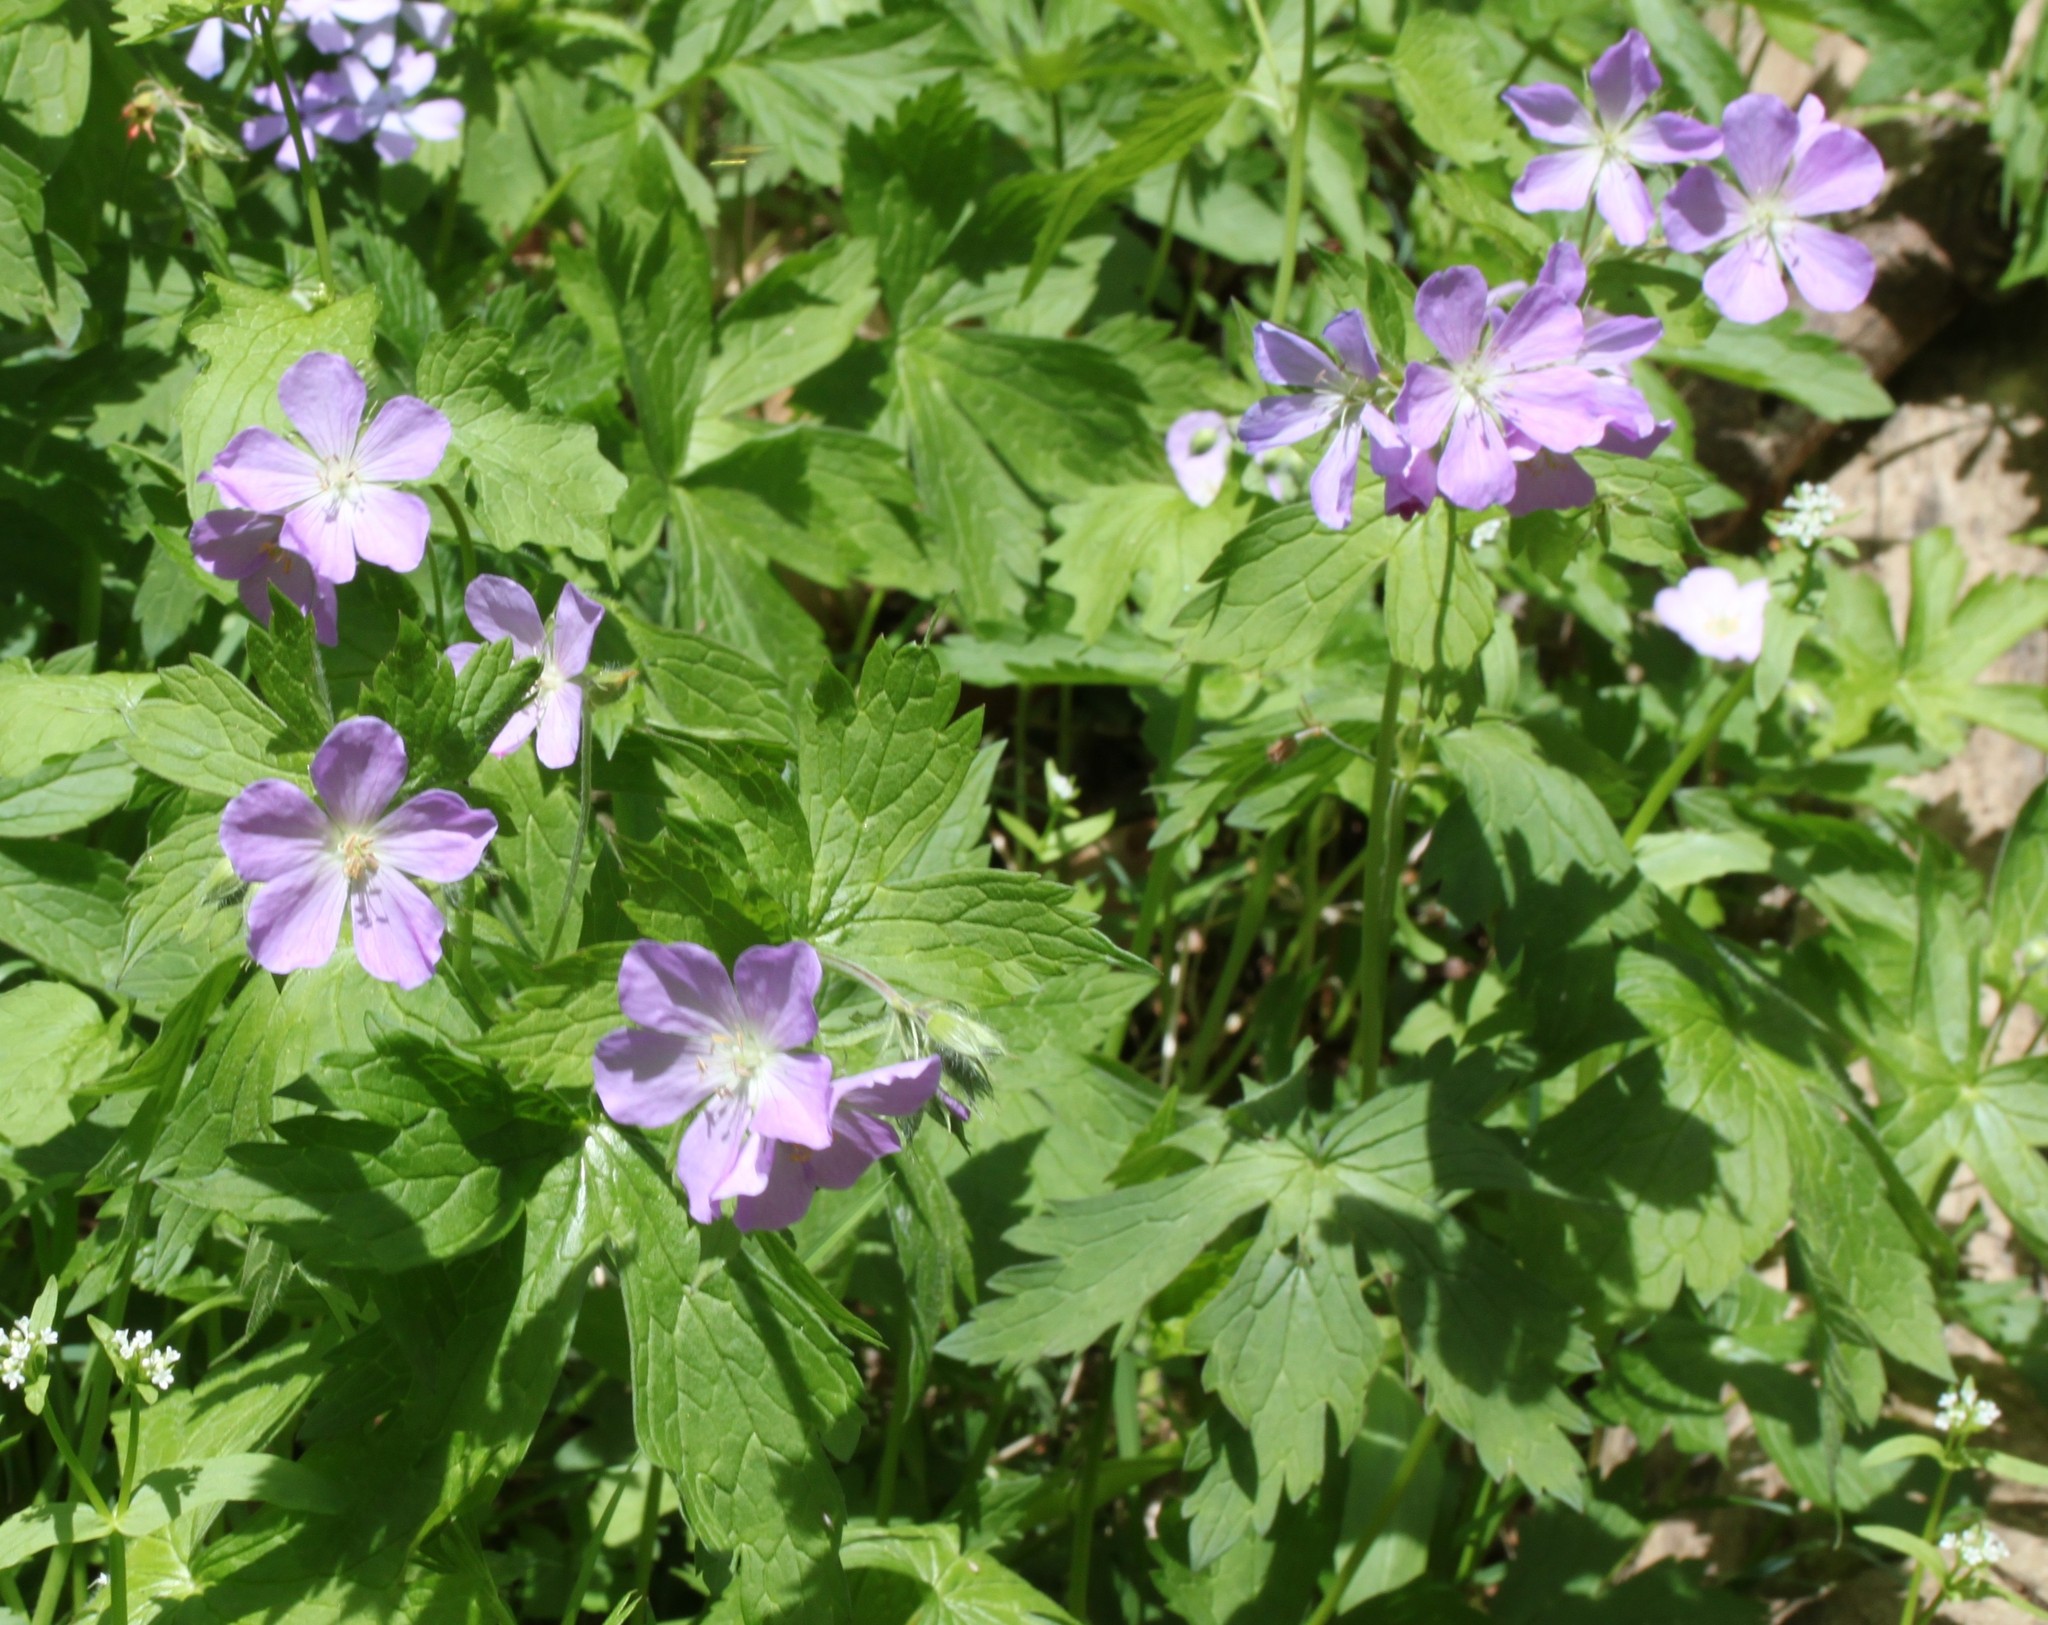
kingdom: Plantae
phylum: Tracheophyta
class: Magnoliopsida
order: Geraniales
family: Geraniaceae
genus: Geranium
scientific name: Geranium maculatum
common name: Spotted geranium
